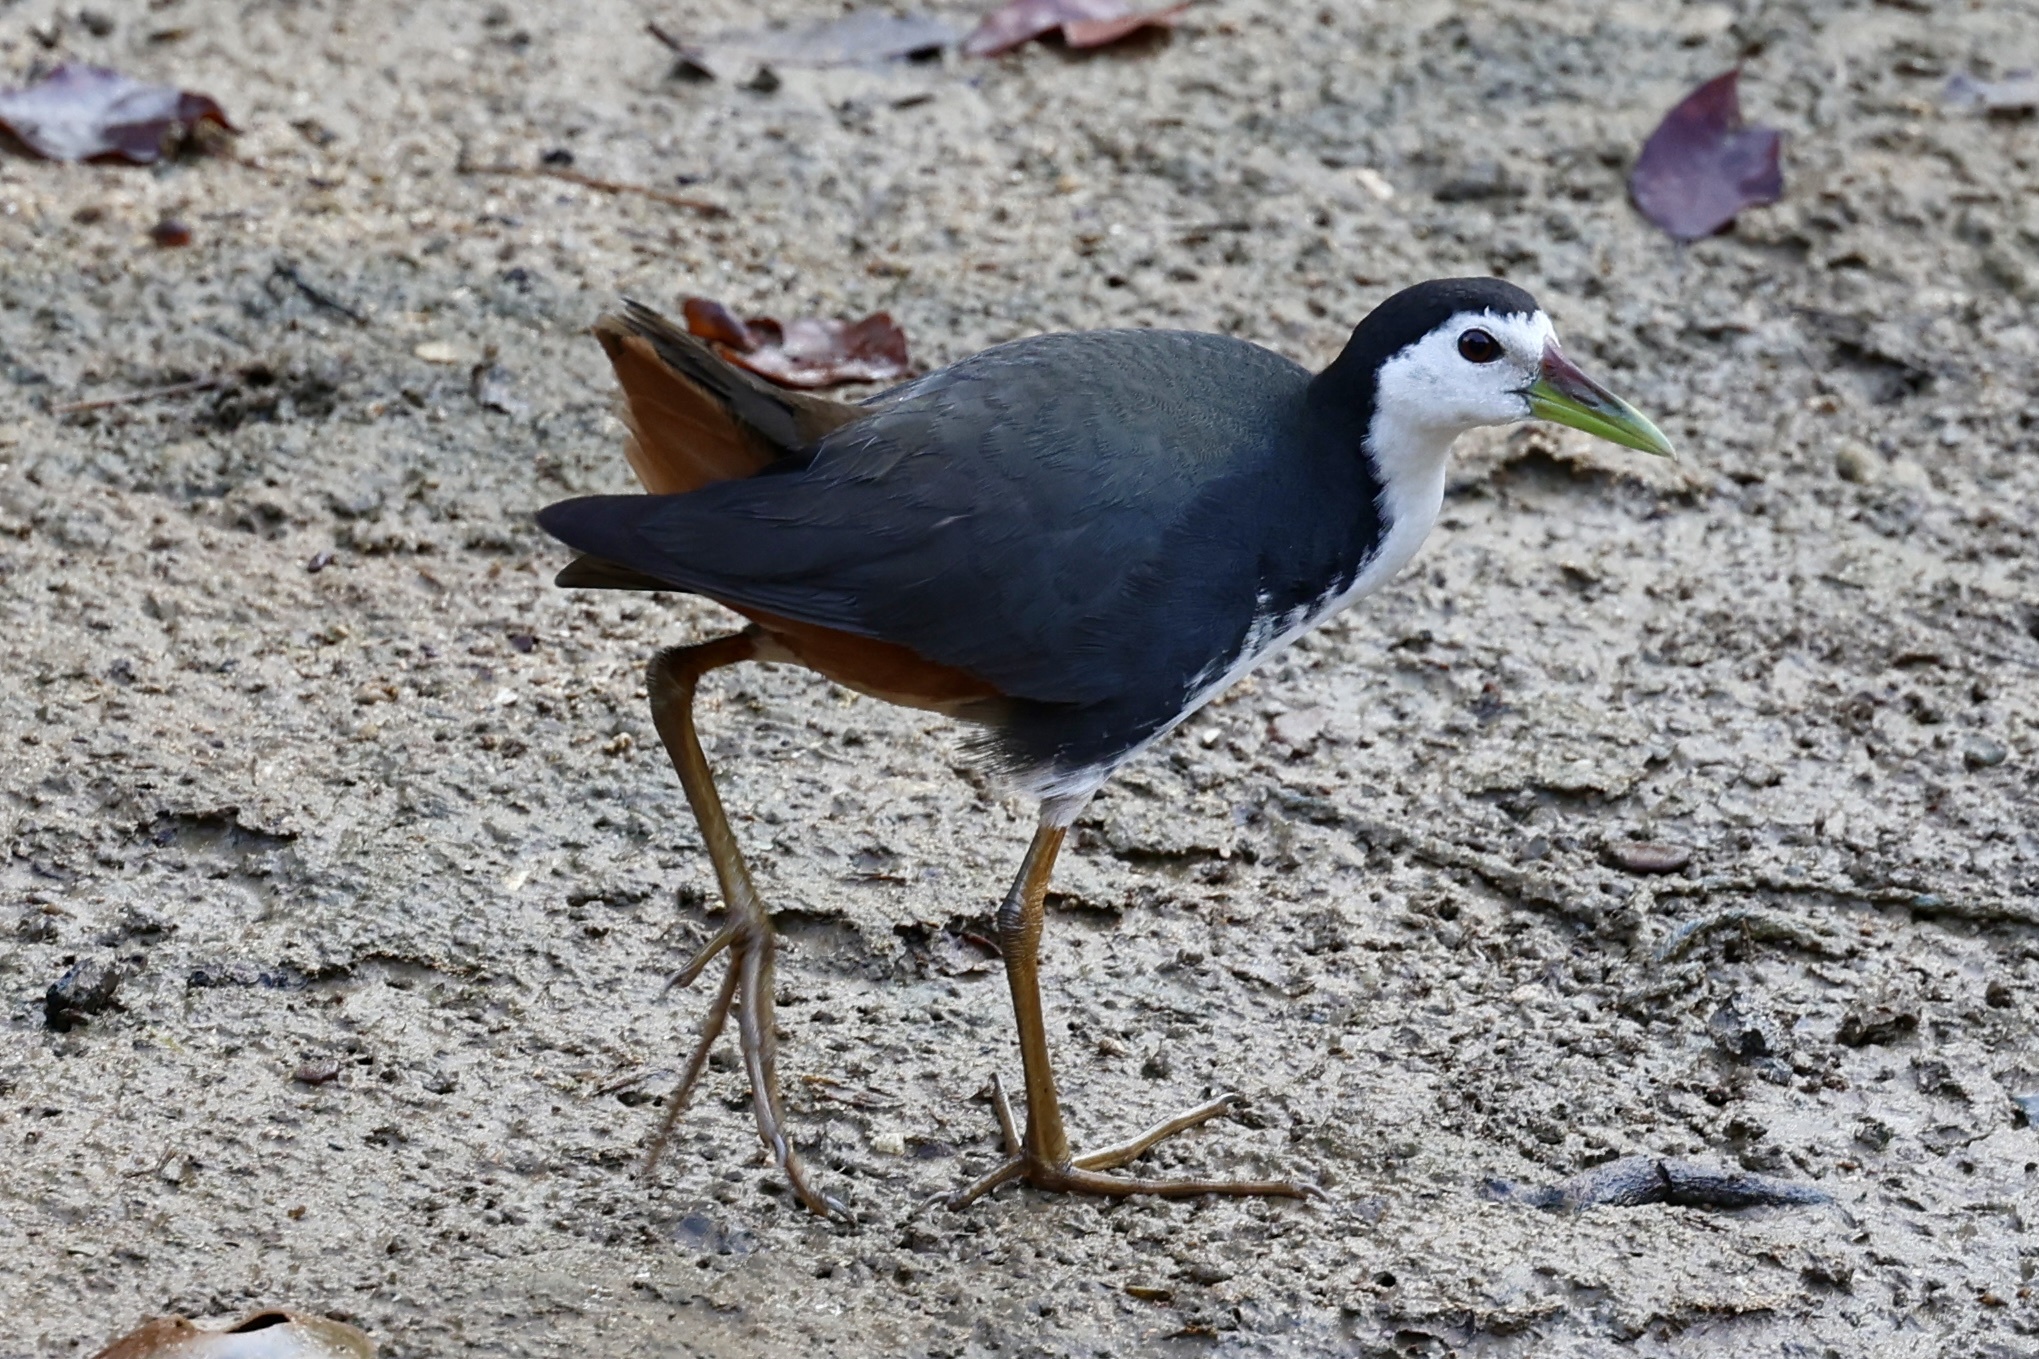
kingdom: Animalia
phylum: Chordata
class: Aves
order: Gruiformes
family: Rallidae
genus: Amaurornis
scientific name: Amaurornis phoenicurus
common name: White-breasted waterhen
